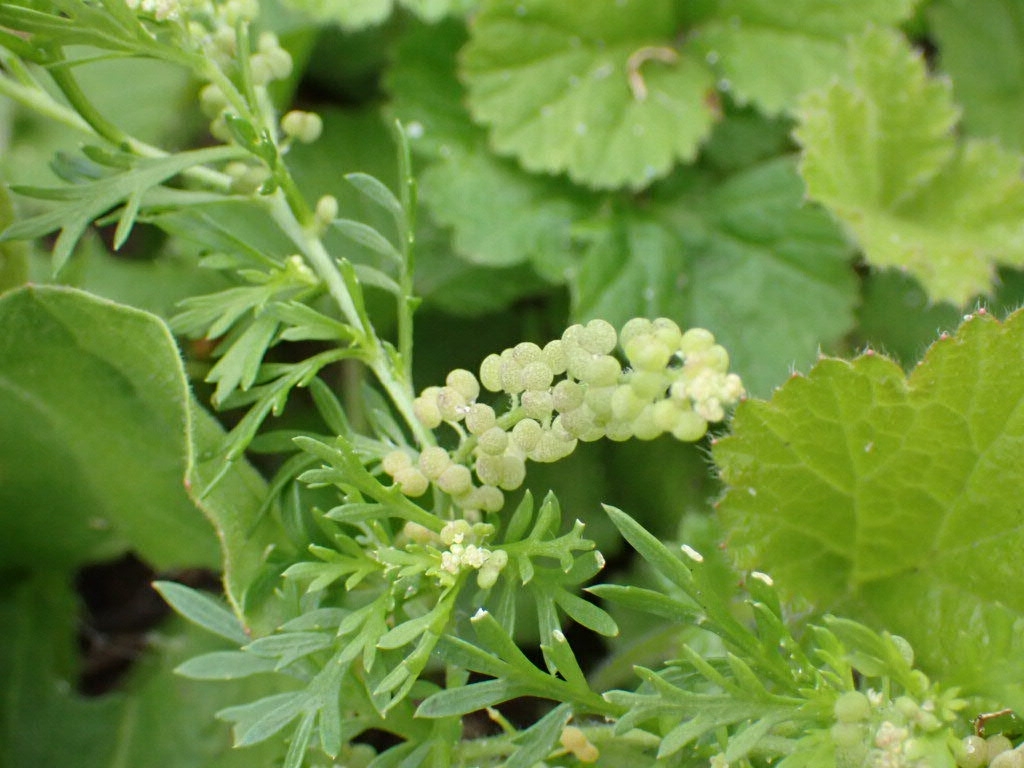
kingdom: Plantae
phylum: Tracheophyta
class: Magnoliopsida
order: Brassicales
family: Brassicaceae
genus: Lepidium
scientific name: Lepidium didymum
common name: Lesser swinecress
